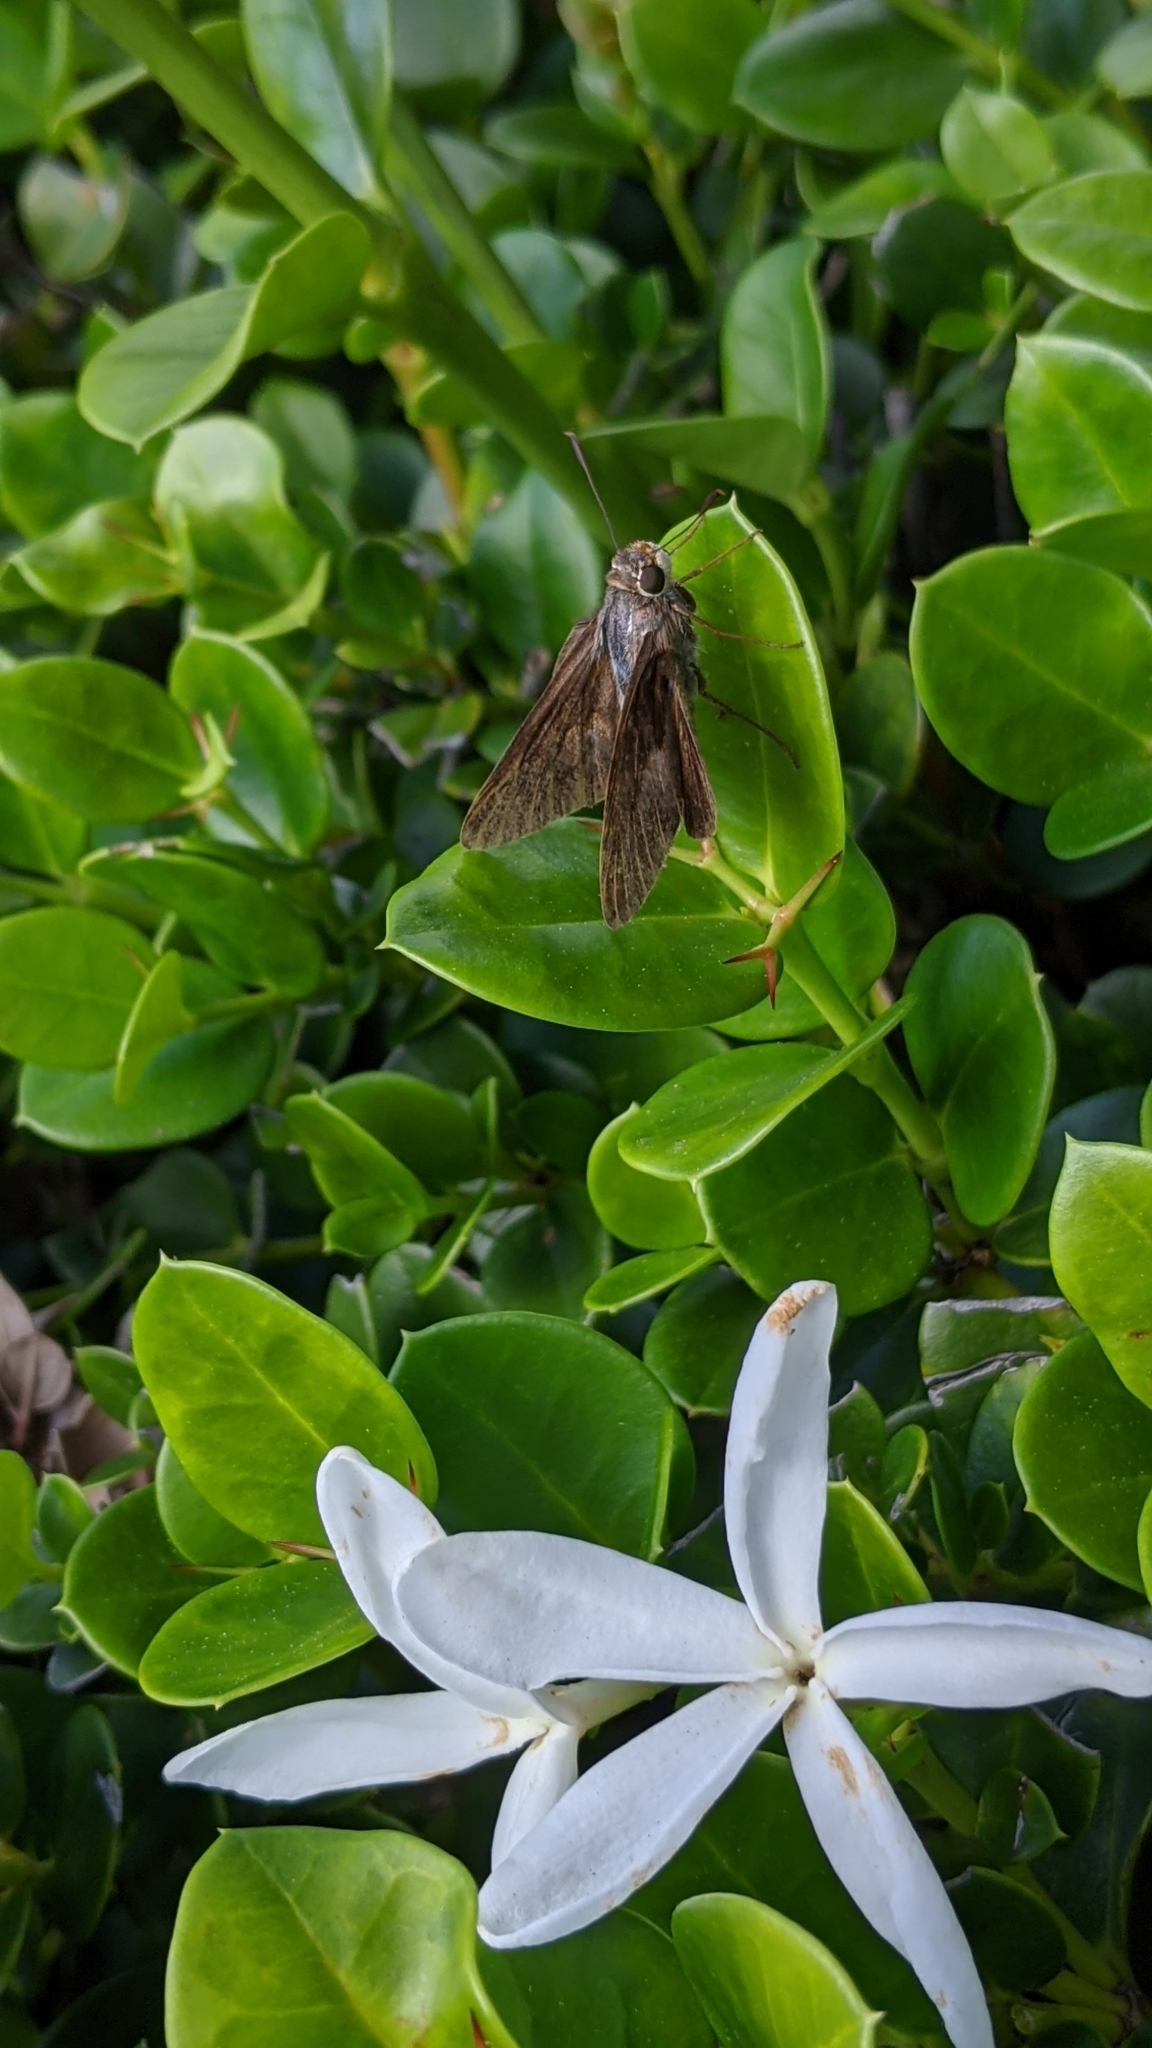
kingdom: Animalia
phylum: Arthropoda
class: Insecta
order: Lepidoptera
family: Hesperiidae
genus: Asbolis
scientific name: Asbolis capucinus
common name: Monk skipper
